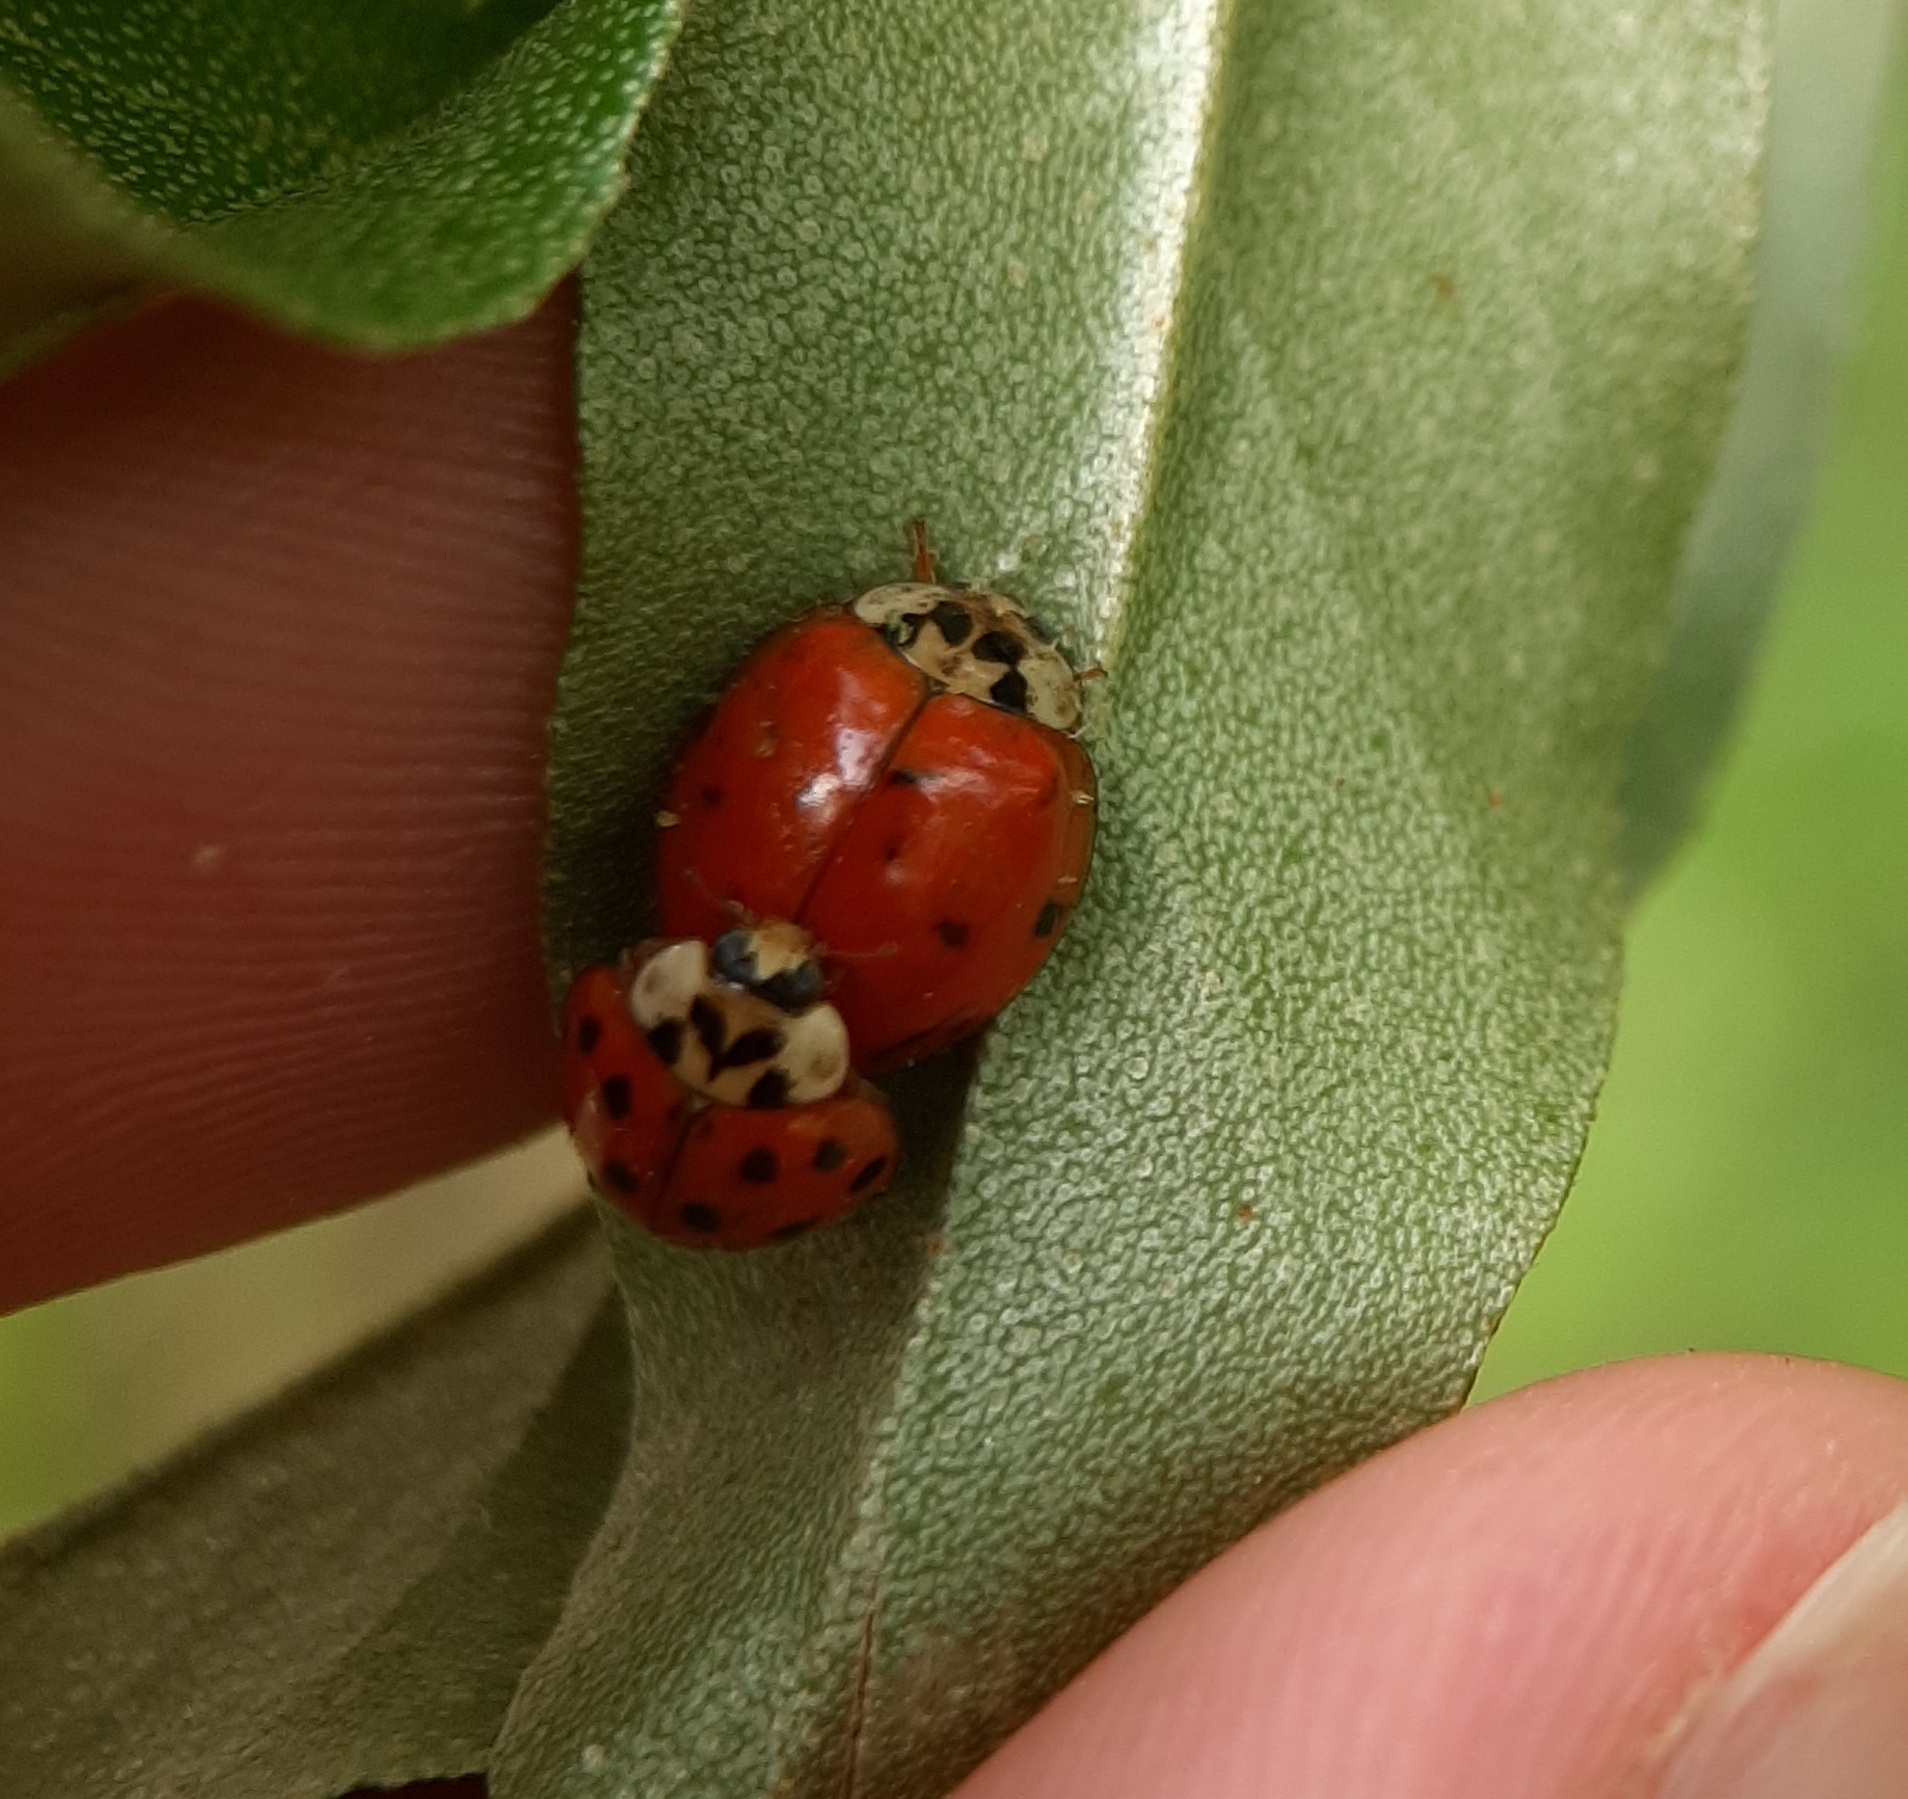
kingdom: Animalia
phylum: Arthropoda
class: Insecta
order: Coleoptera
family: Coccinellidae
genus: Harmonia
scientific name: Harmonia axyridis
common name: Harlequin ladybird
